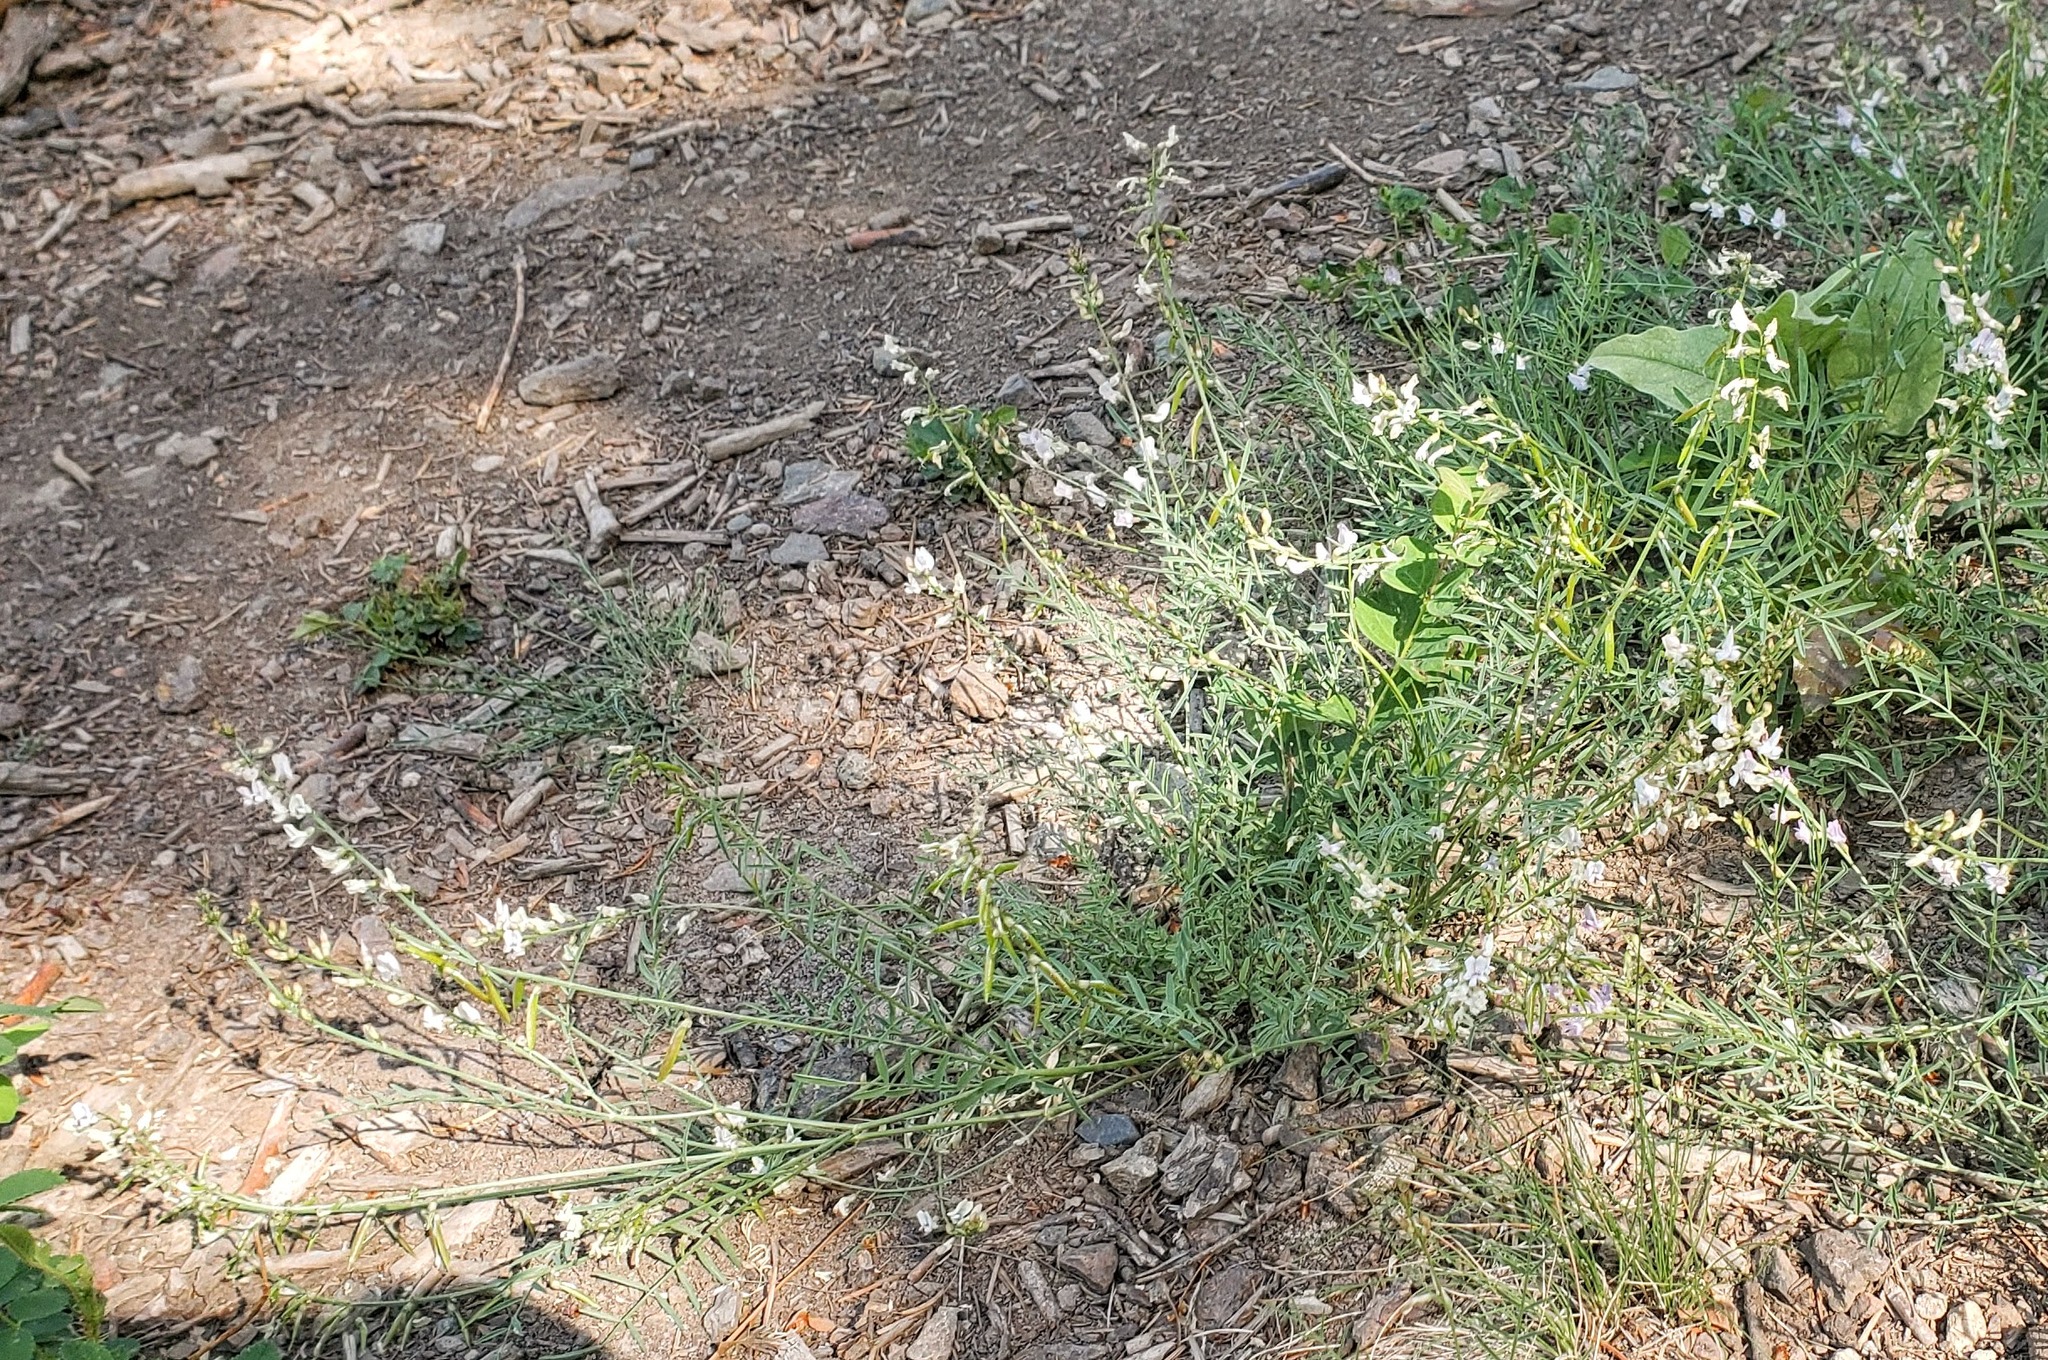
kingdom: Plantae
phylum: Tracheophyta
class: Magnoliopsida
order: Fabales
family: Fabaceae
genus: Astragalus
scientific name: Astragalus miser
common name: Timber milkvetch
